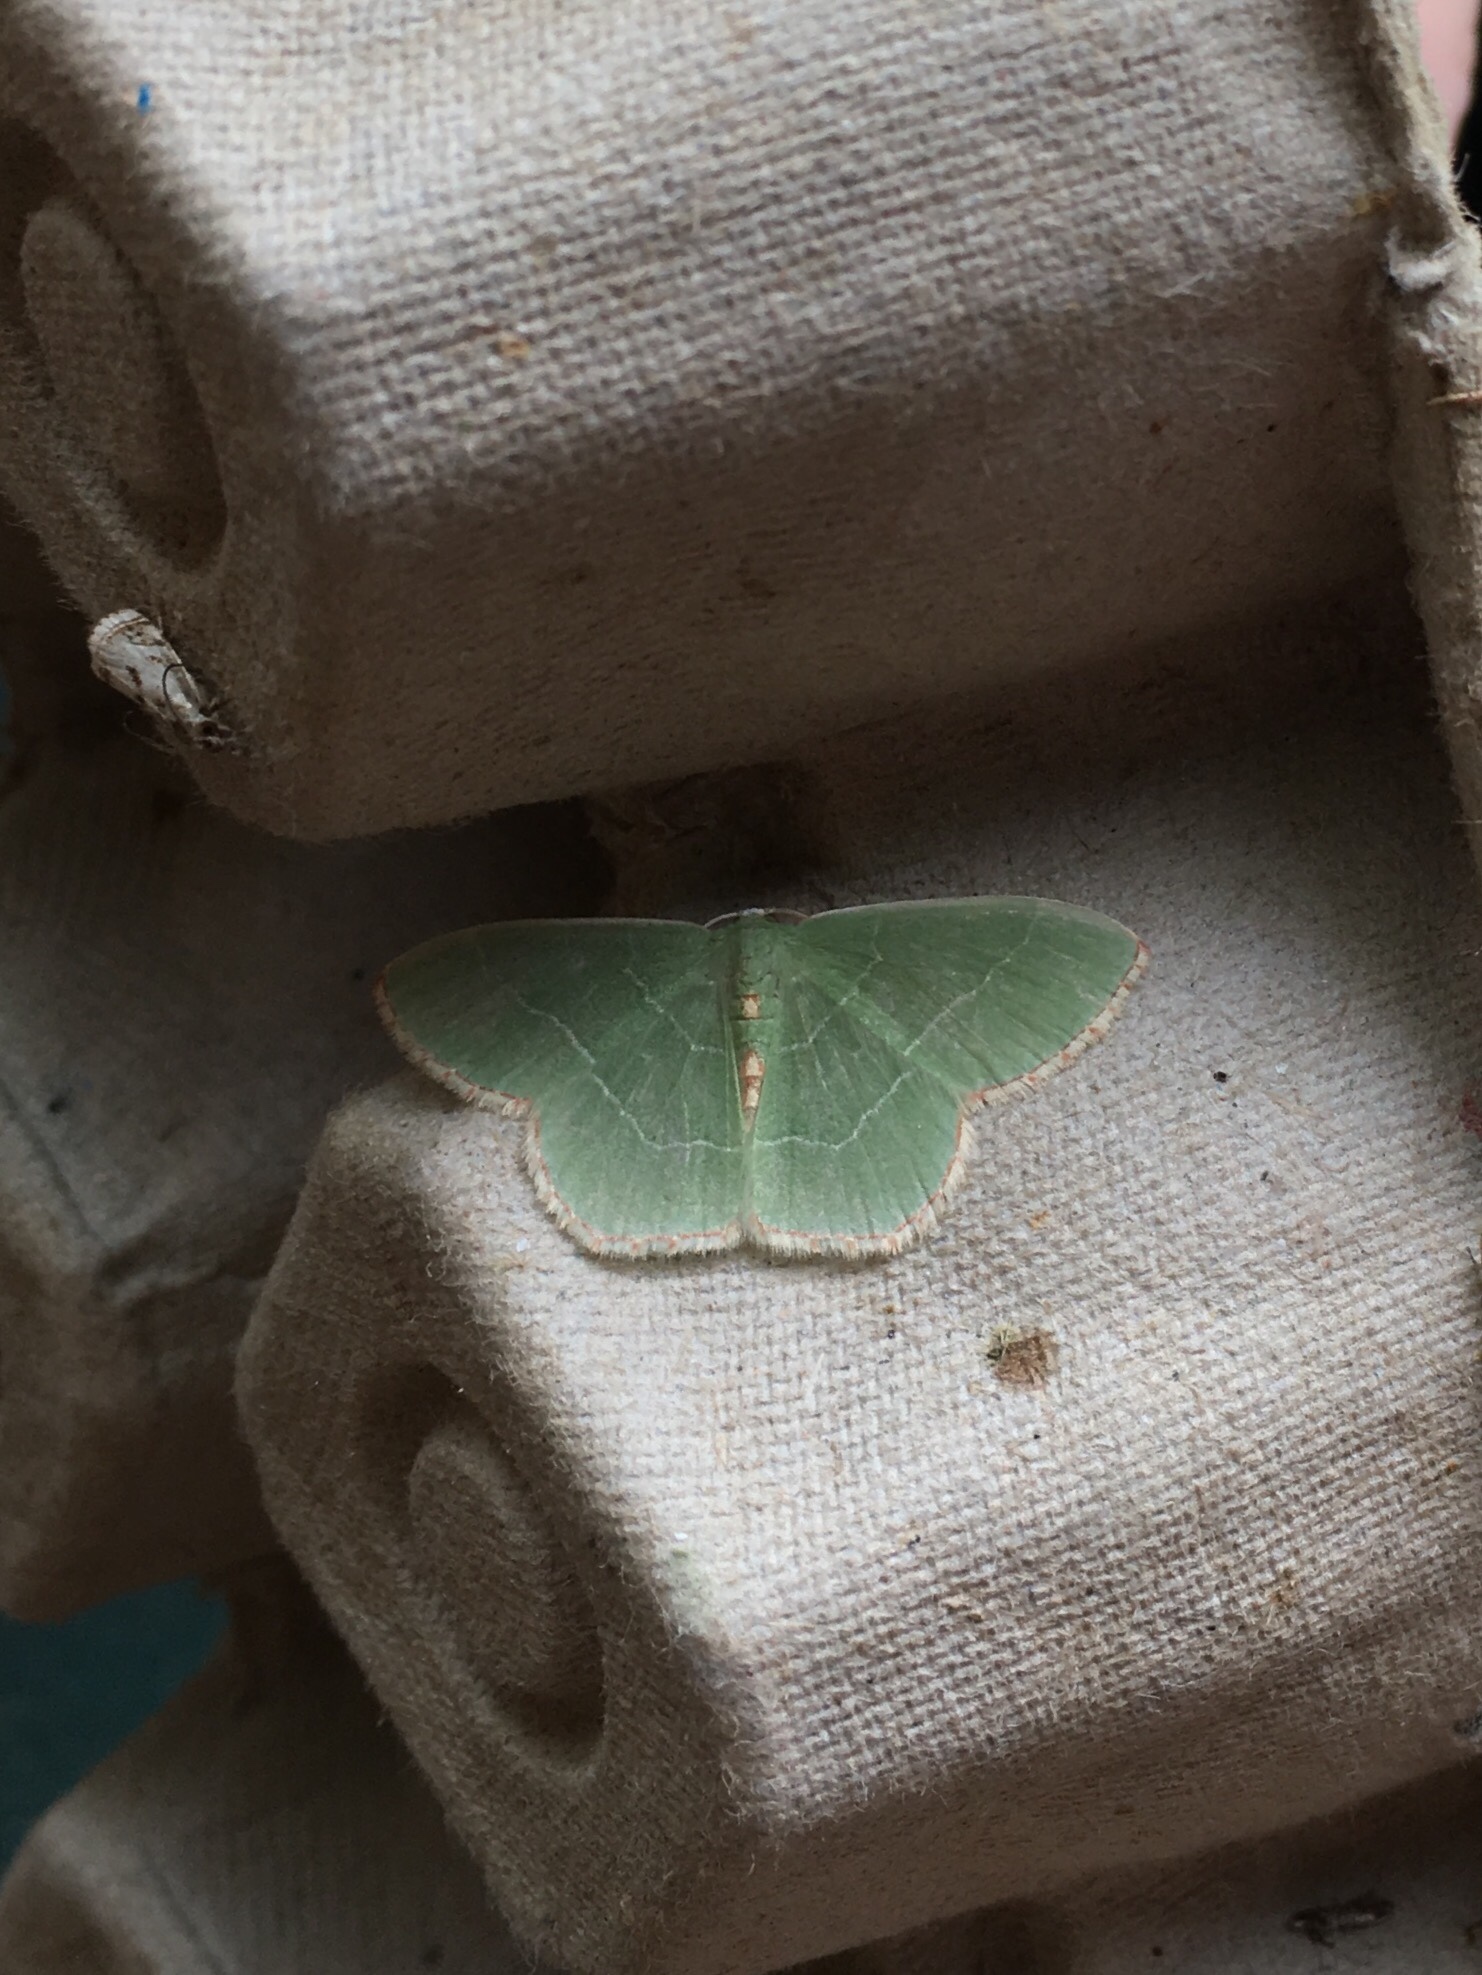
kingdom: Animalia
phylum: Arthropoda
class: Insecta
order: Lepidoptera
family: Geometridae
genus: Nemoria
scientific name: Nemoria bistriaria
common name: Red-fringed emerald
